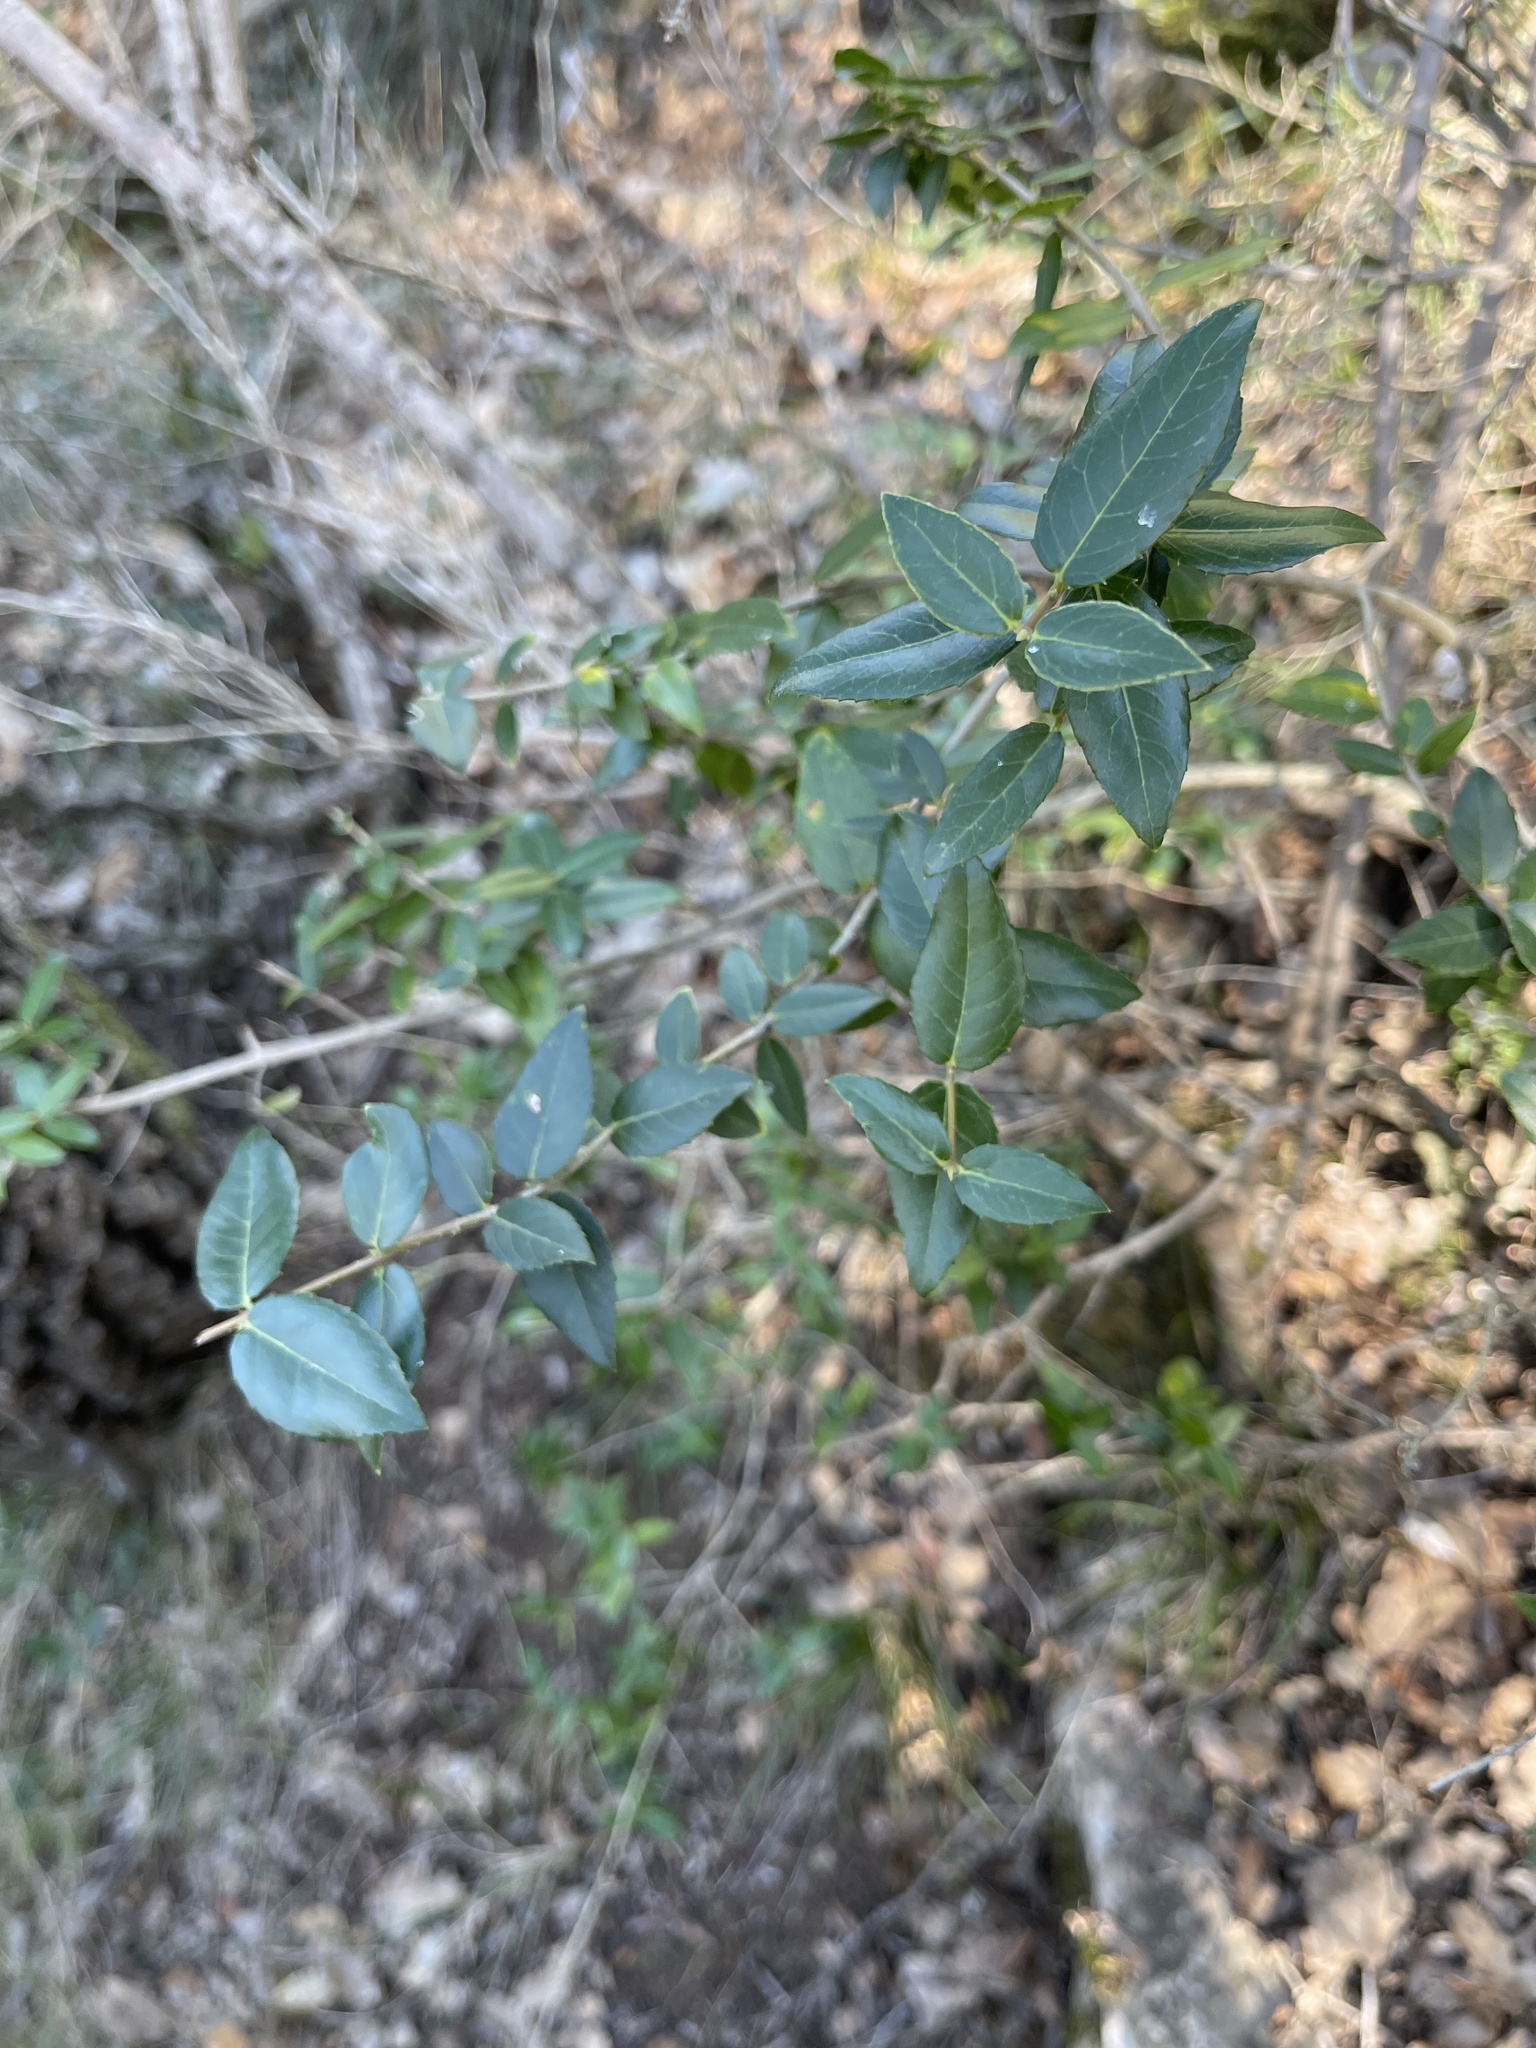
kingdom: Plantae
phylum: Tracheophyta
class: Magnoliopsida
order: Lamiales
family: Oleaceae
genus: Phillyrea
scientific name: Phillyrea latifolia
